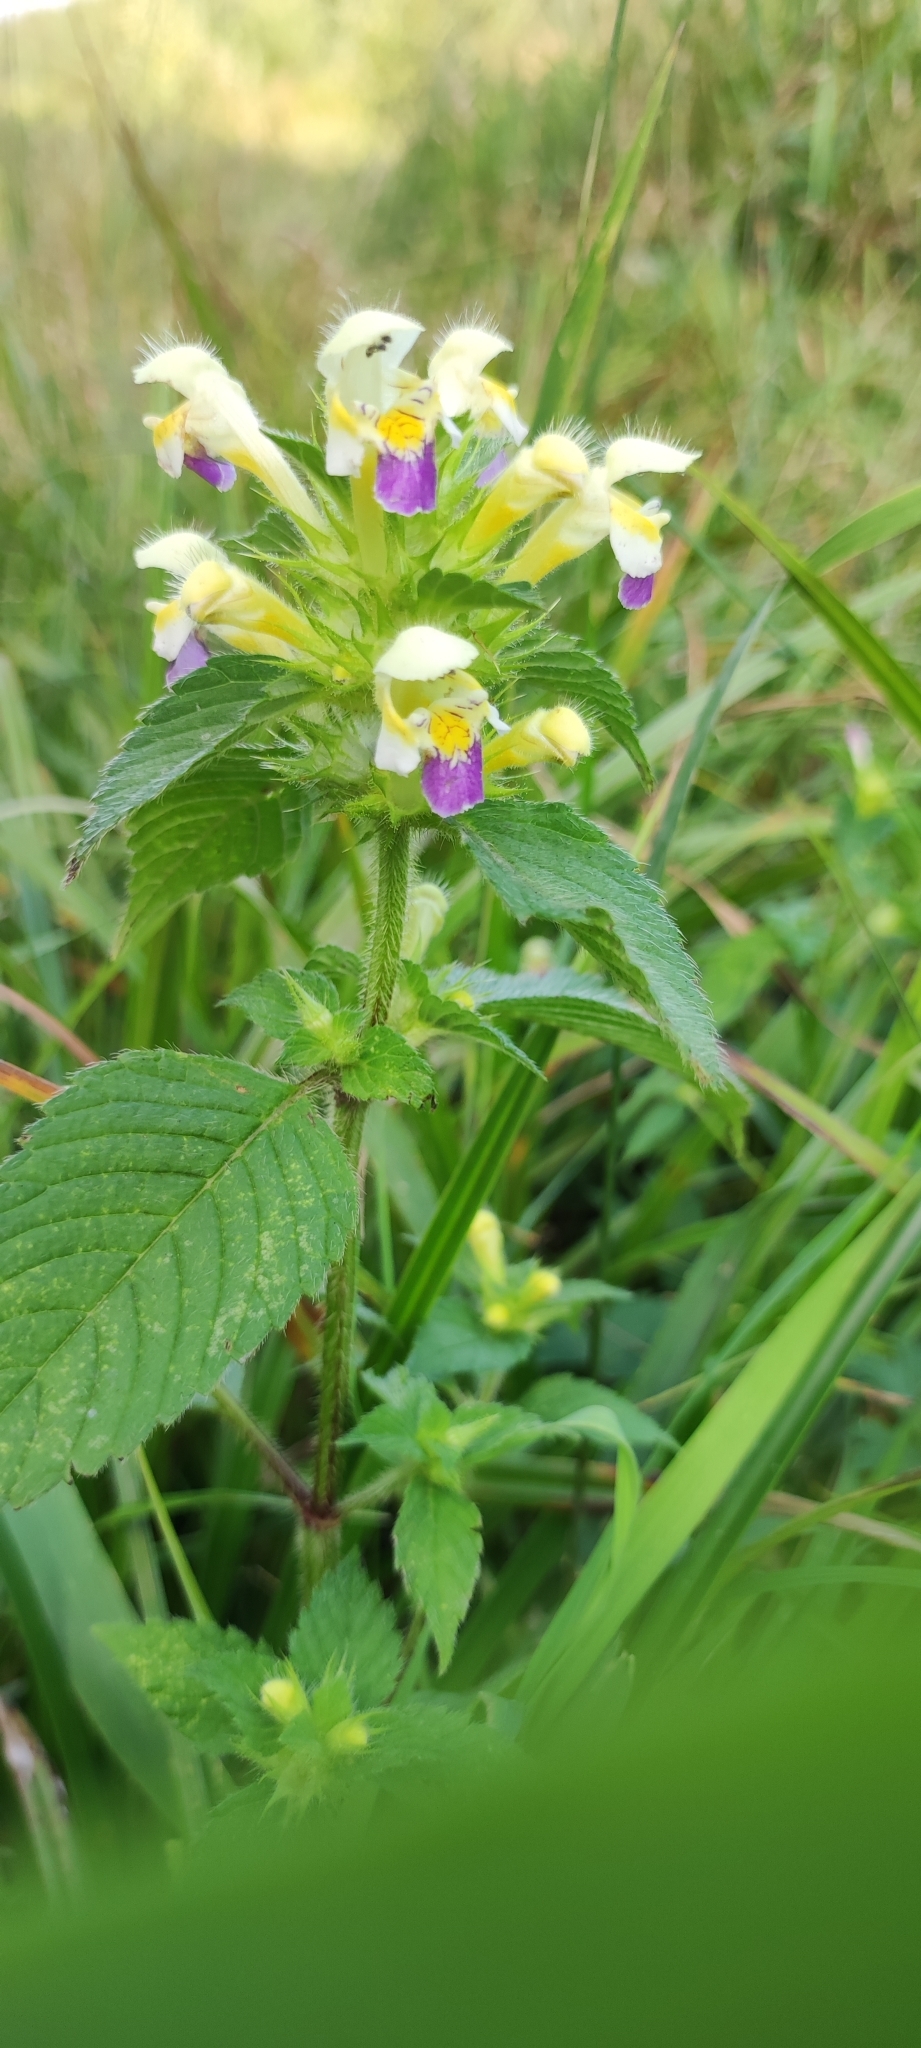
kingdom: Plantae
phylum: Tracheophyta
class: Magnoliopsida
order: Lamiales
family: Lamiaceae
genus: Galeopsis
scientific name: Galeopsis speciosa
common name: Large-flowered hemp-nettle
